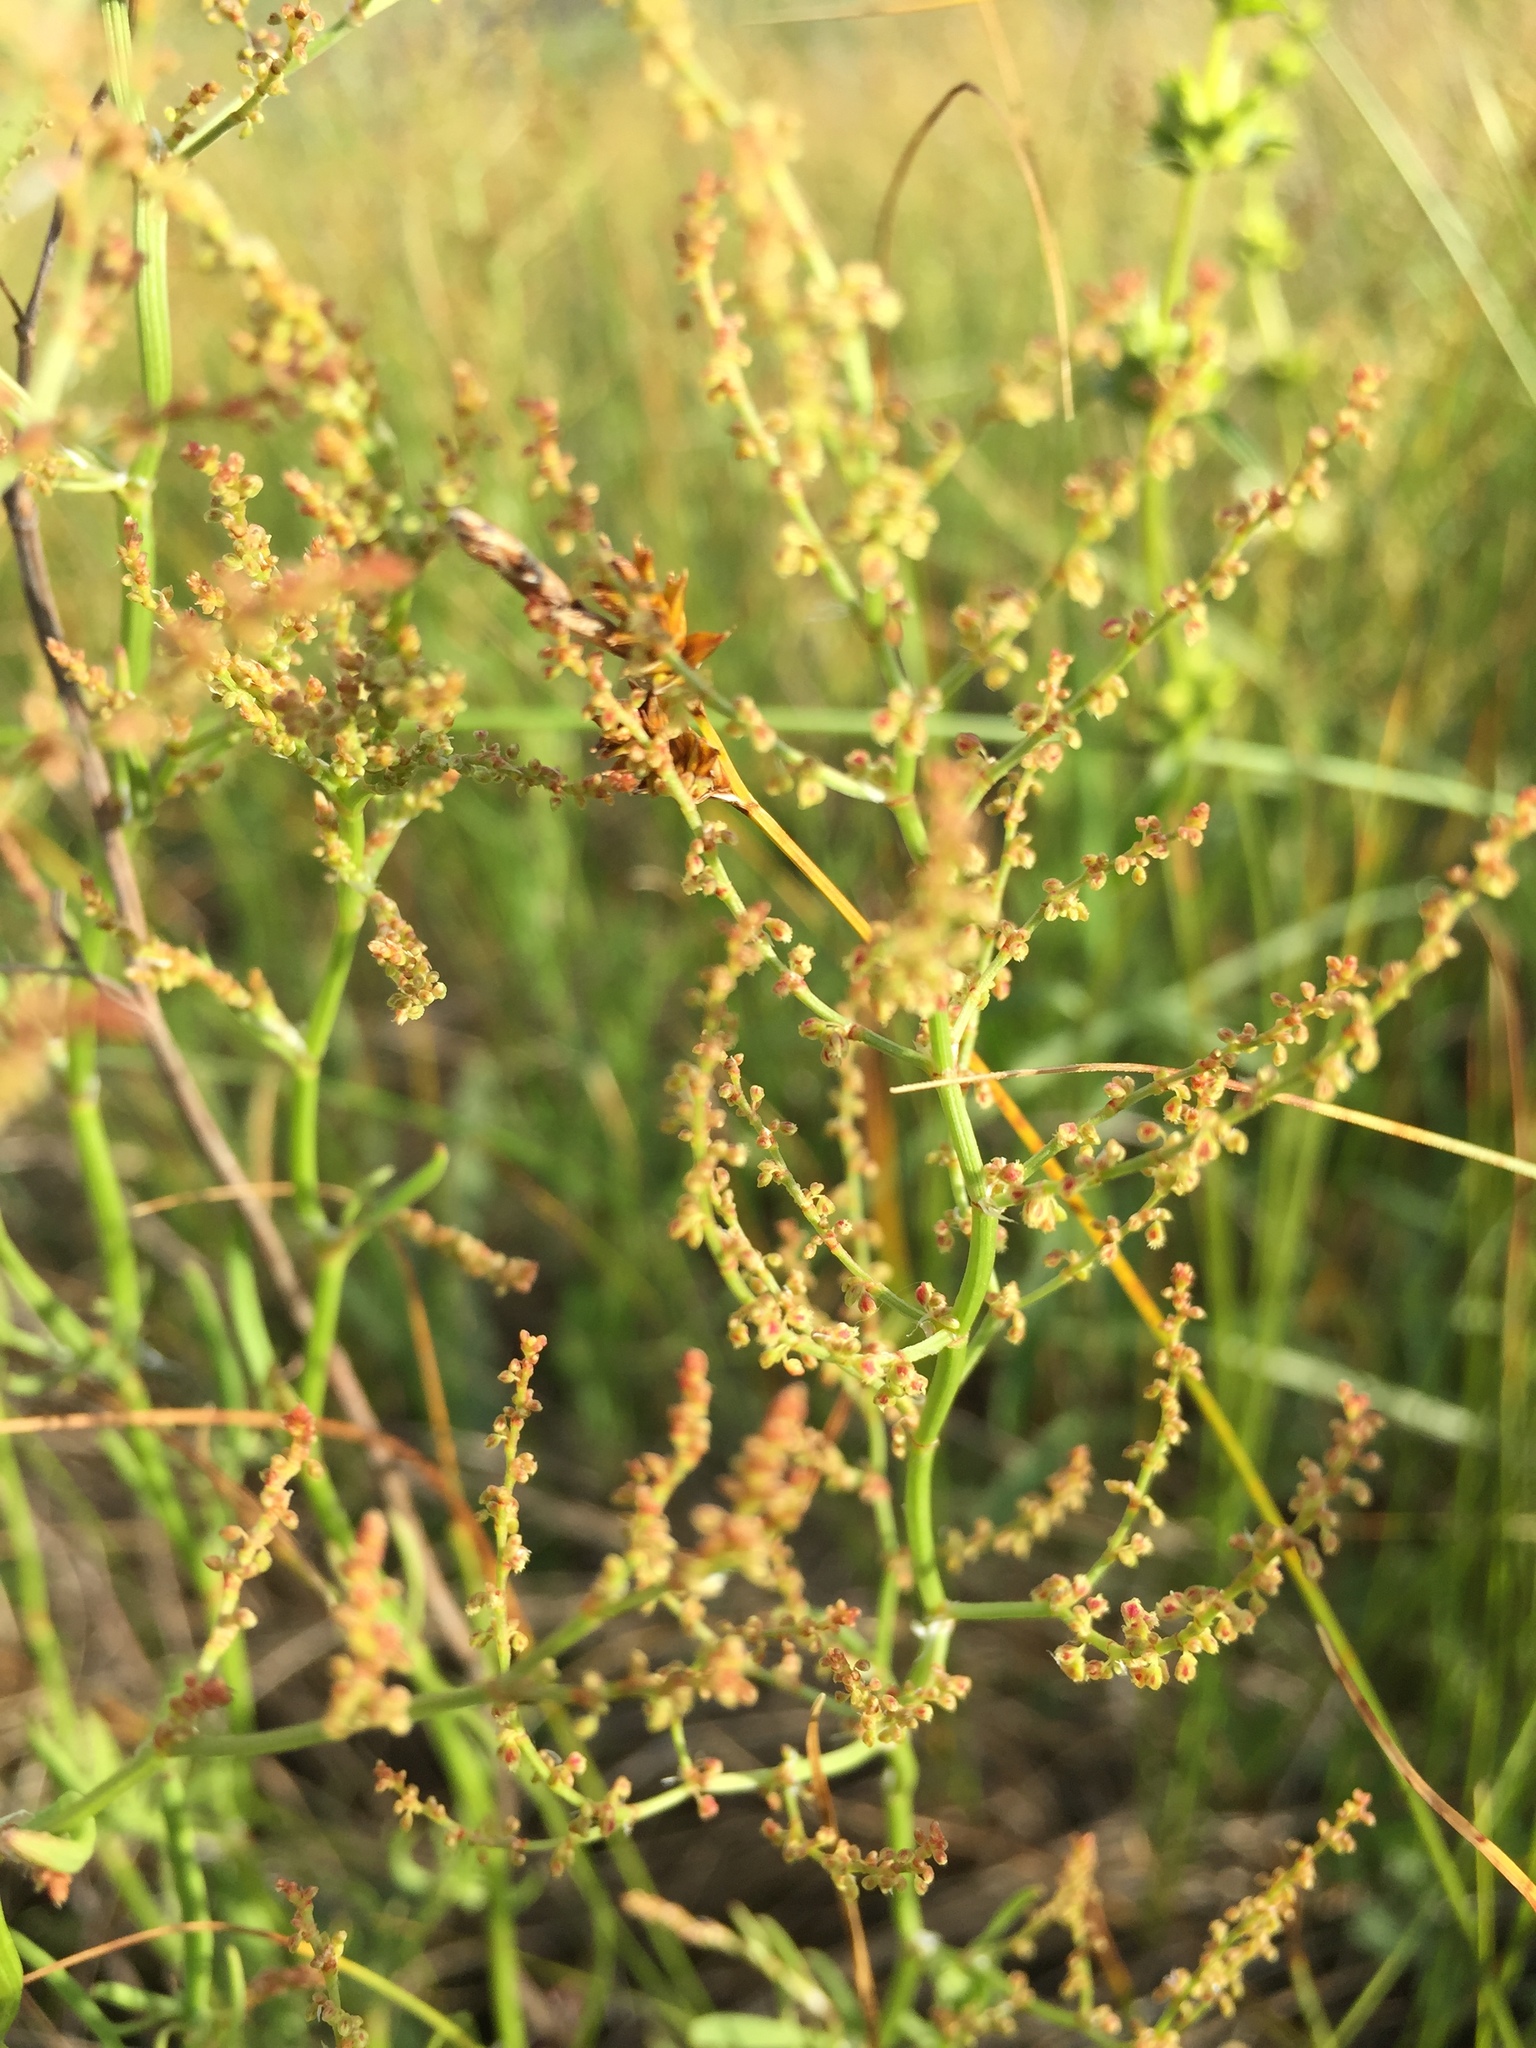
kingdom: Plantae
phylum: Tracheophyta
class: Magnoliopsida
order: Caryophyllales
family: Polygonaceae
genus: Rumex
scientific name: Rumex acetosella
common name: Common sheep sorrel
